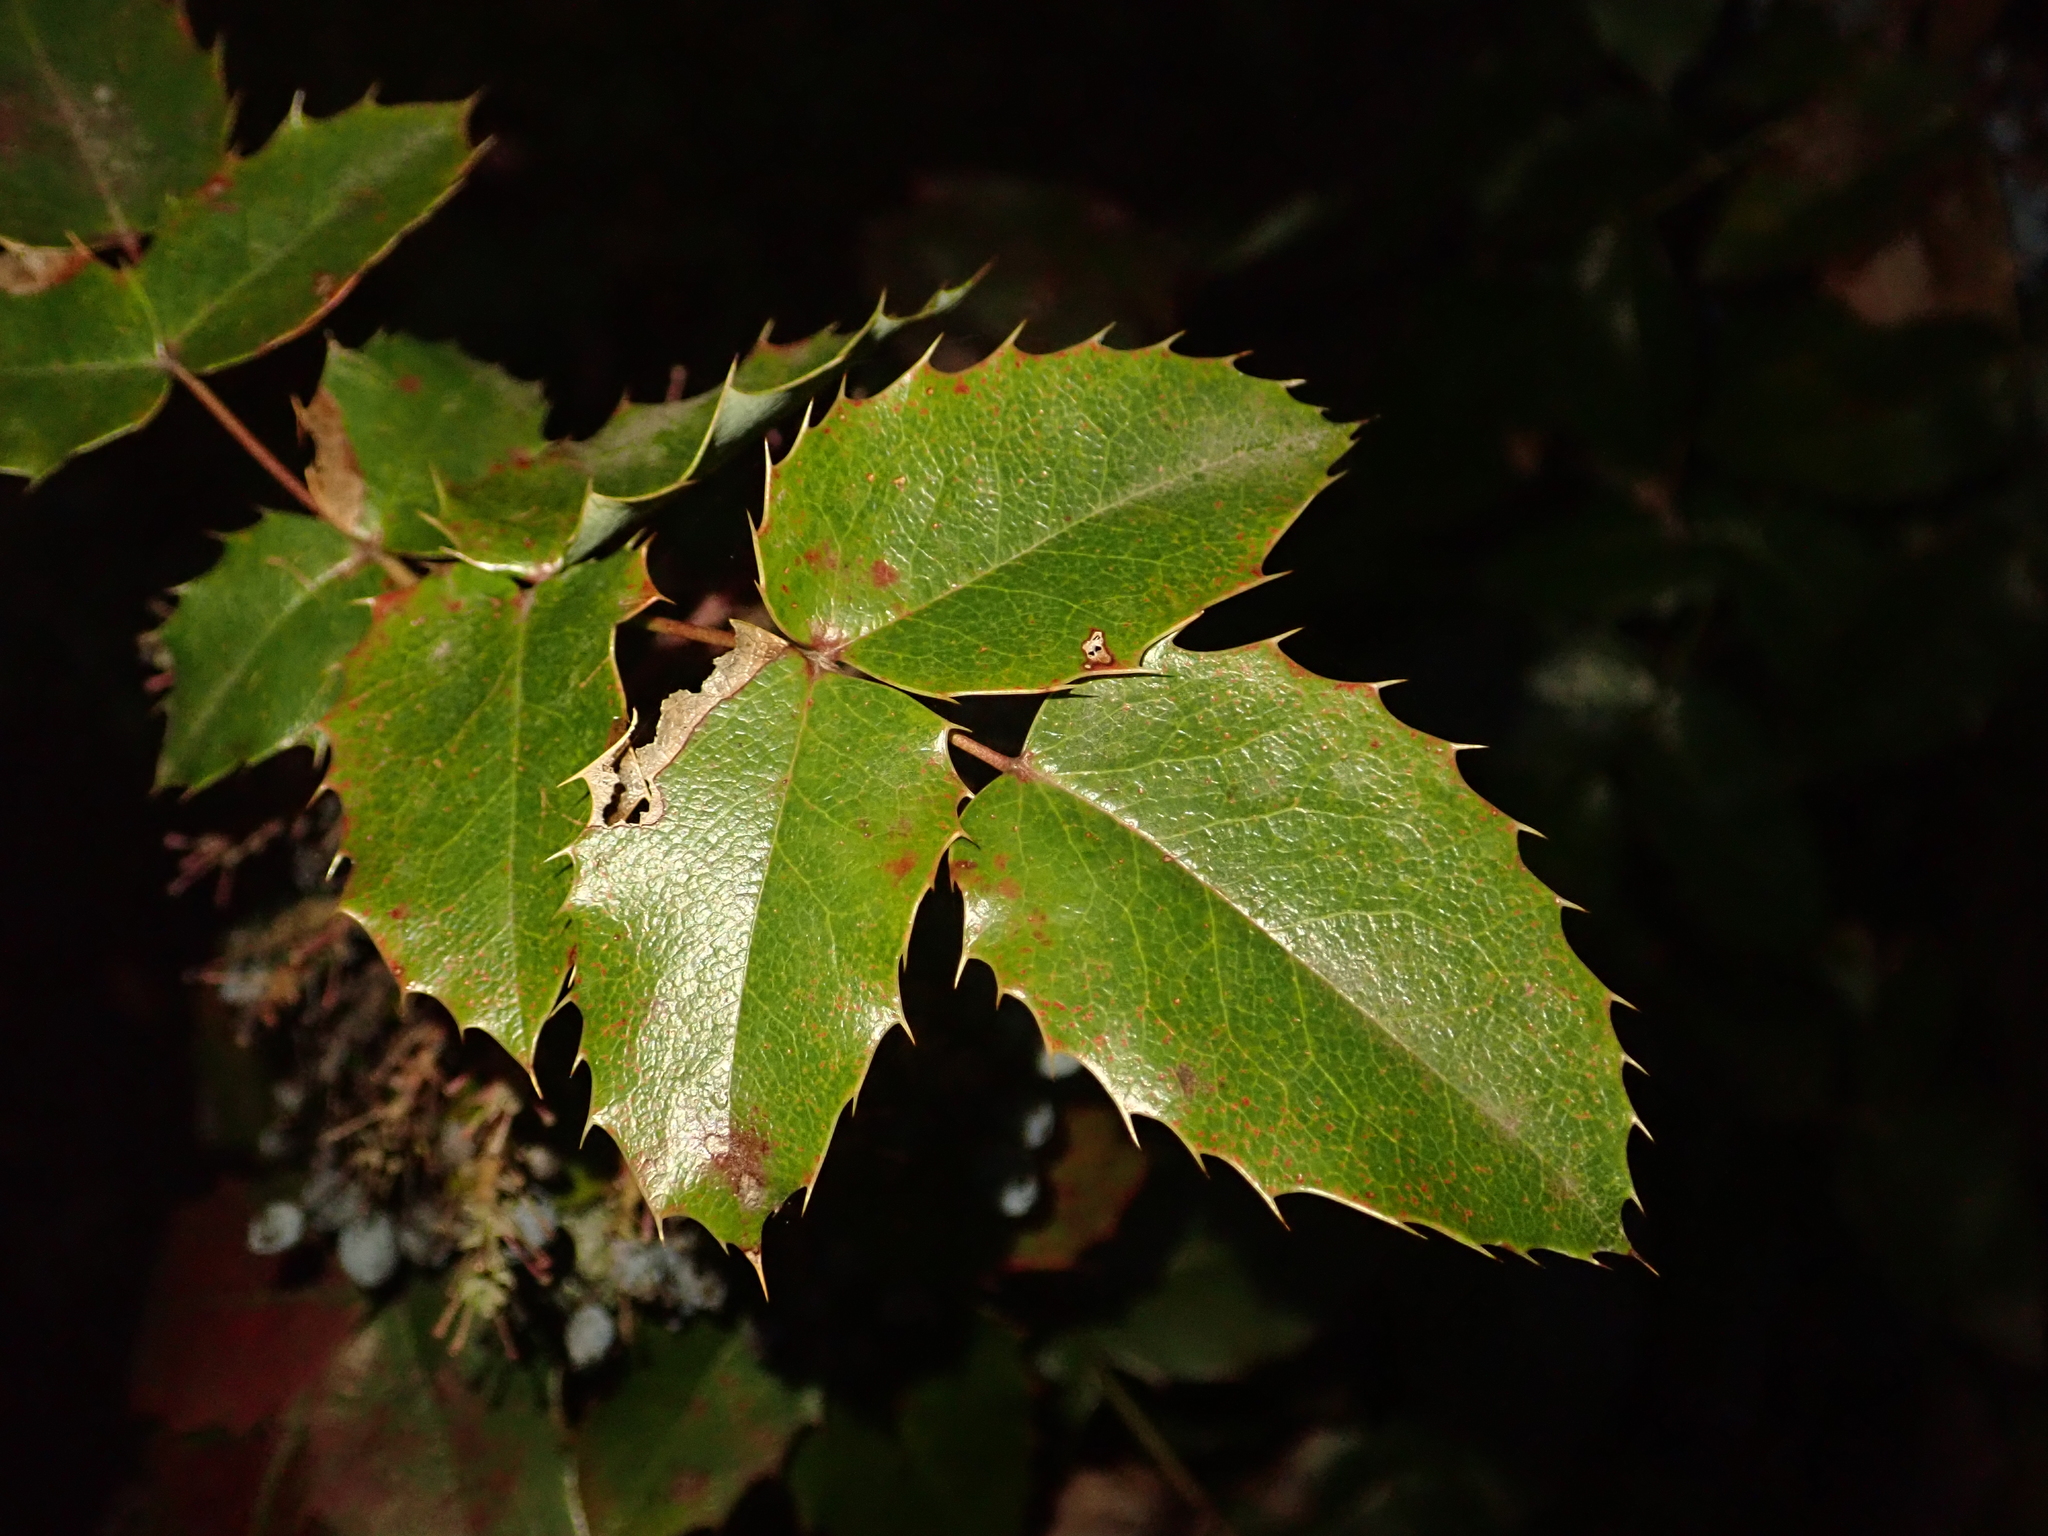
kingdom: Plantae
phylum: Tracheophyta
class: Magnoliopsida
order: Ranunculales
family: Berberidaceae
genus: Mahonia
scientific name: Mahonia aquifolium
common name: Oregon-grape
